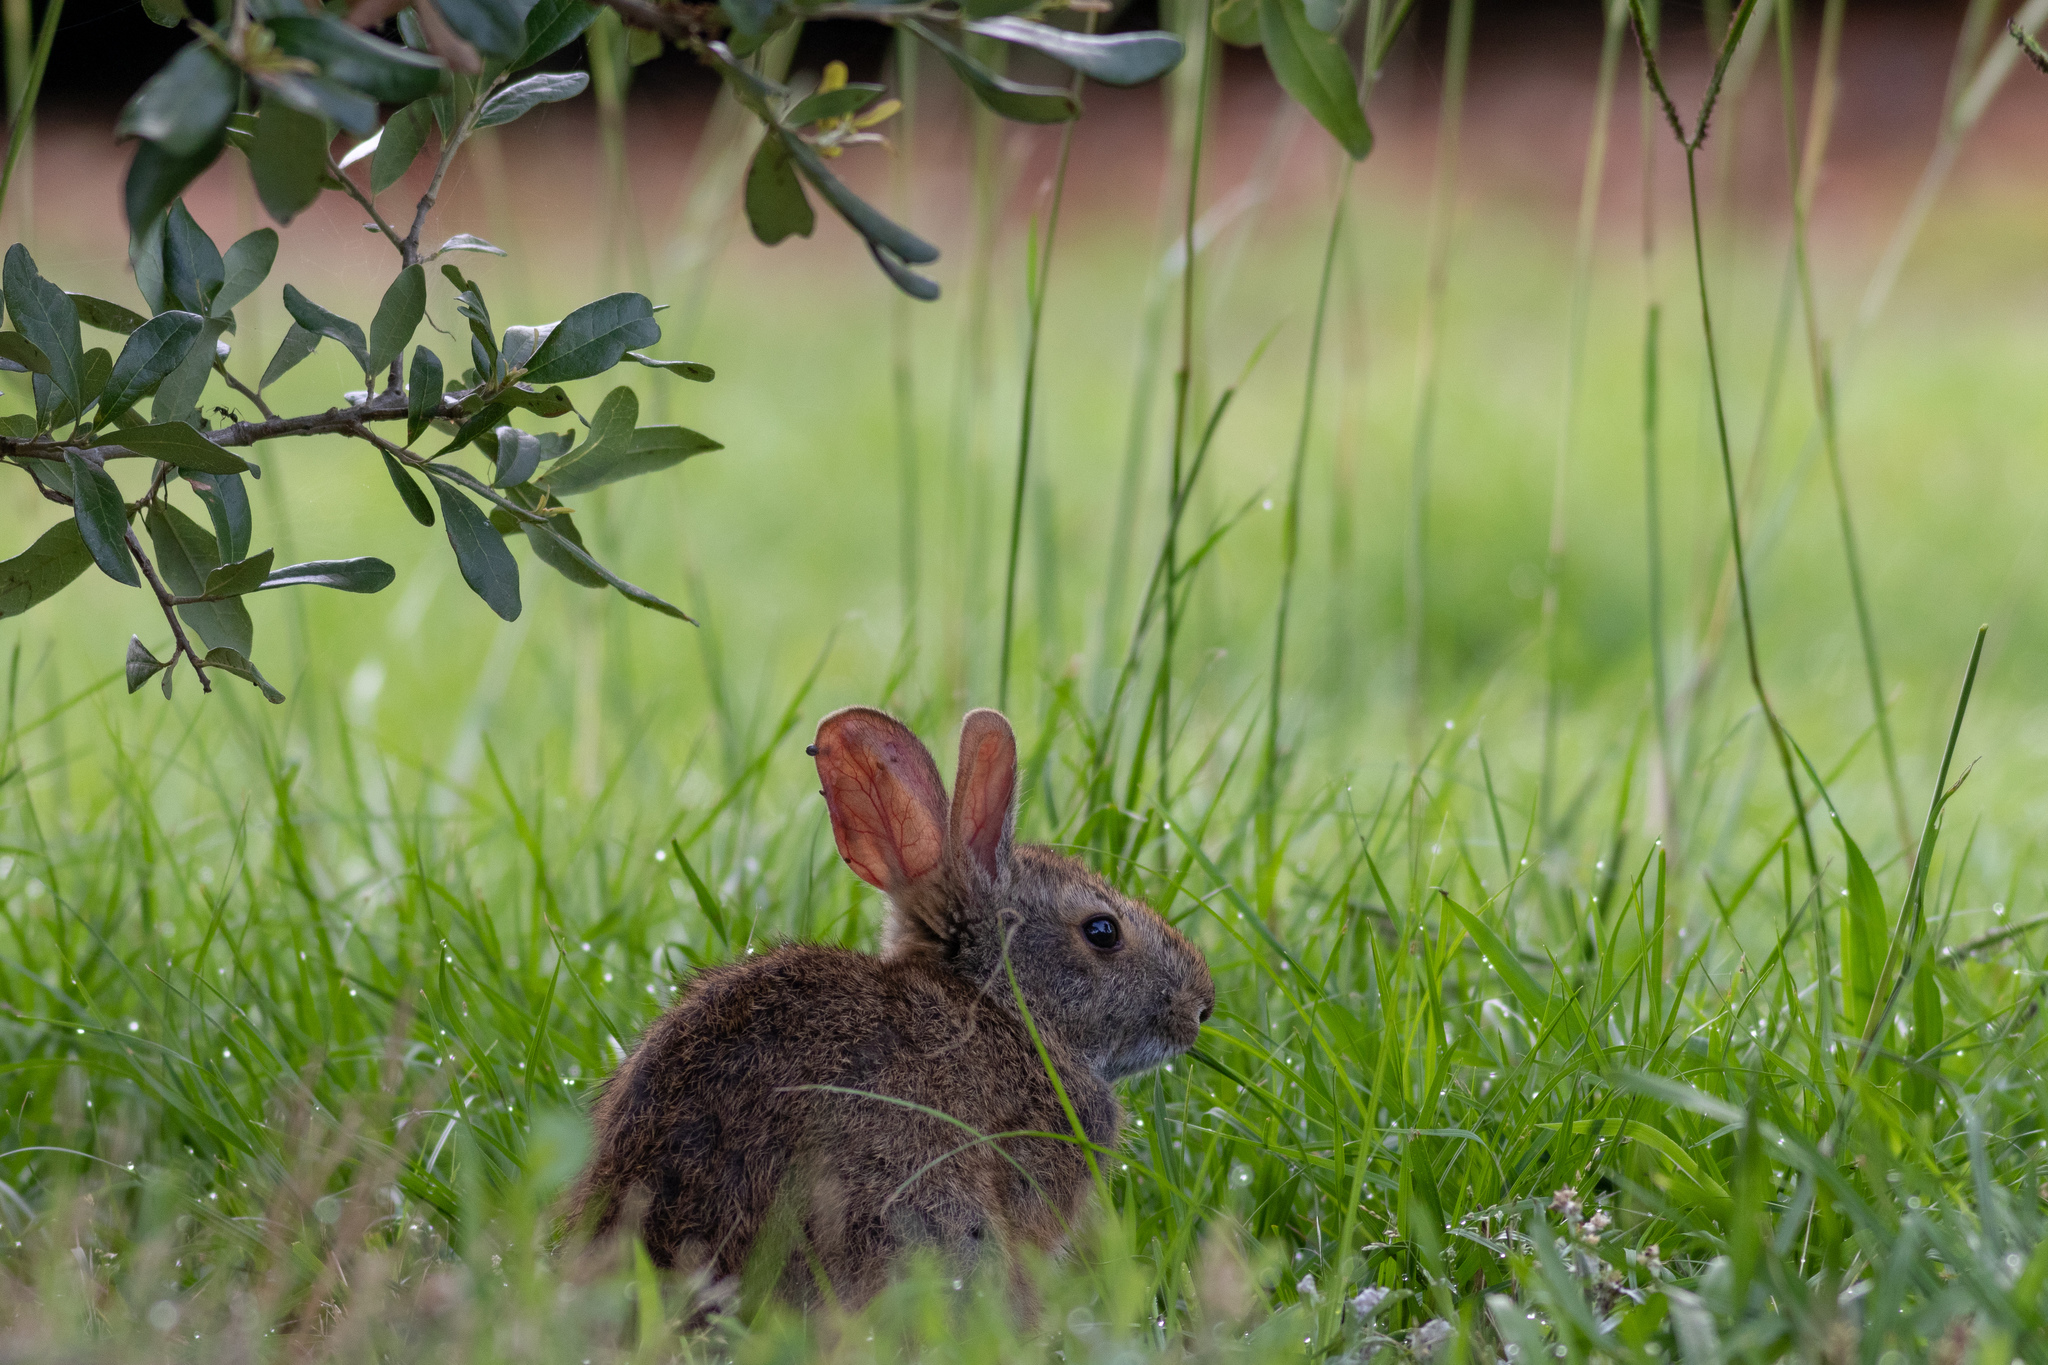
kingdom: Animalia
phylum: Chordata
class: Mammalia
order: Lagomorpha
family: Leporidae
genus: Sylvilagus
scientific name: Sylvilagus palustris
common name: Marsh rabbit
